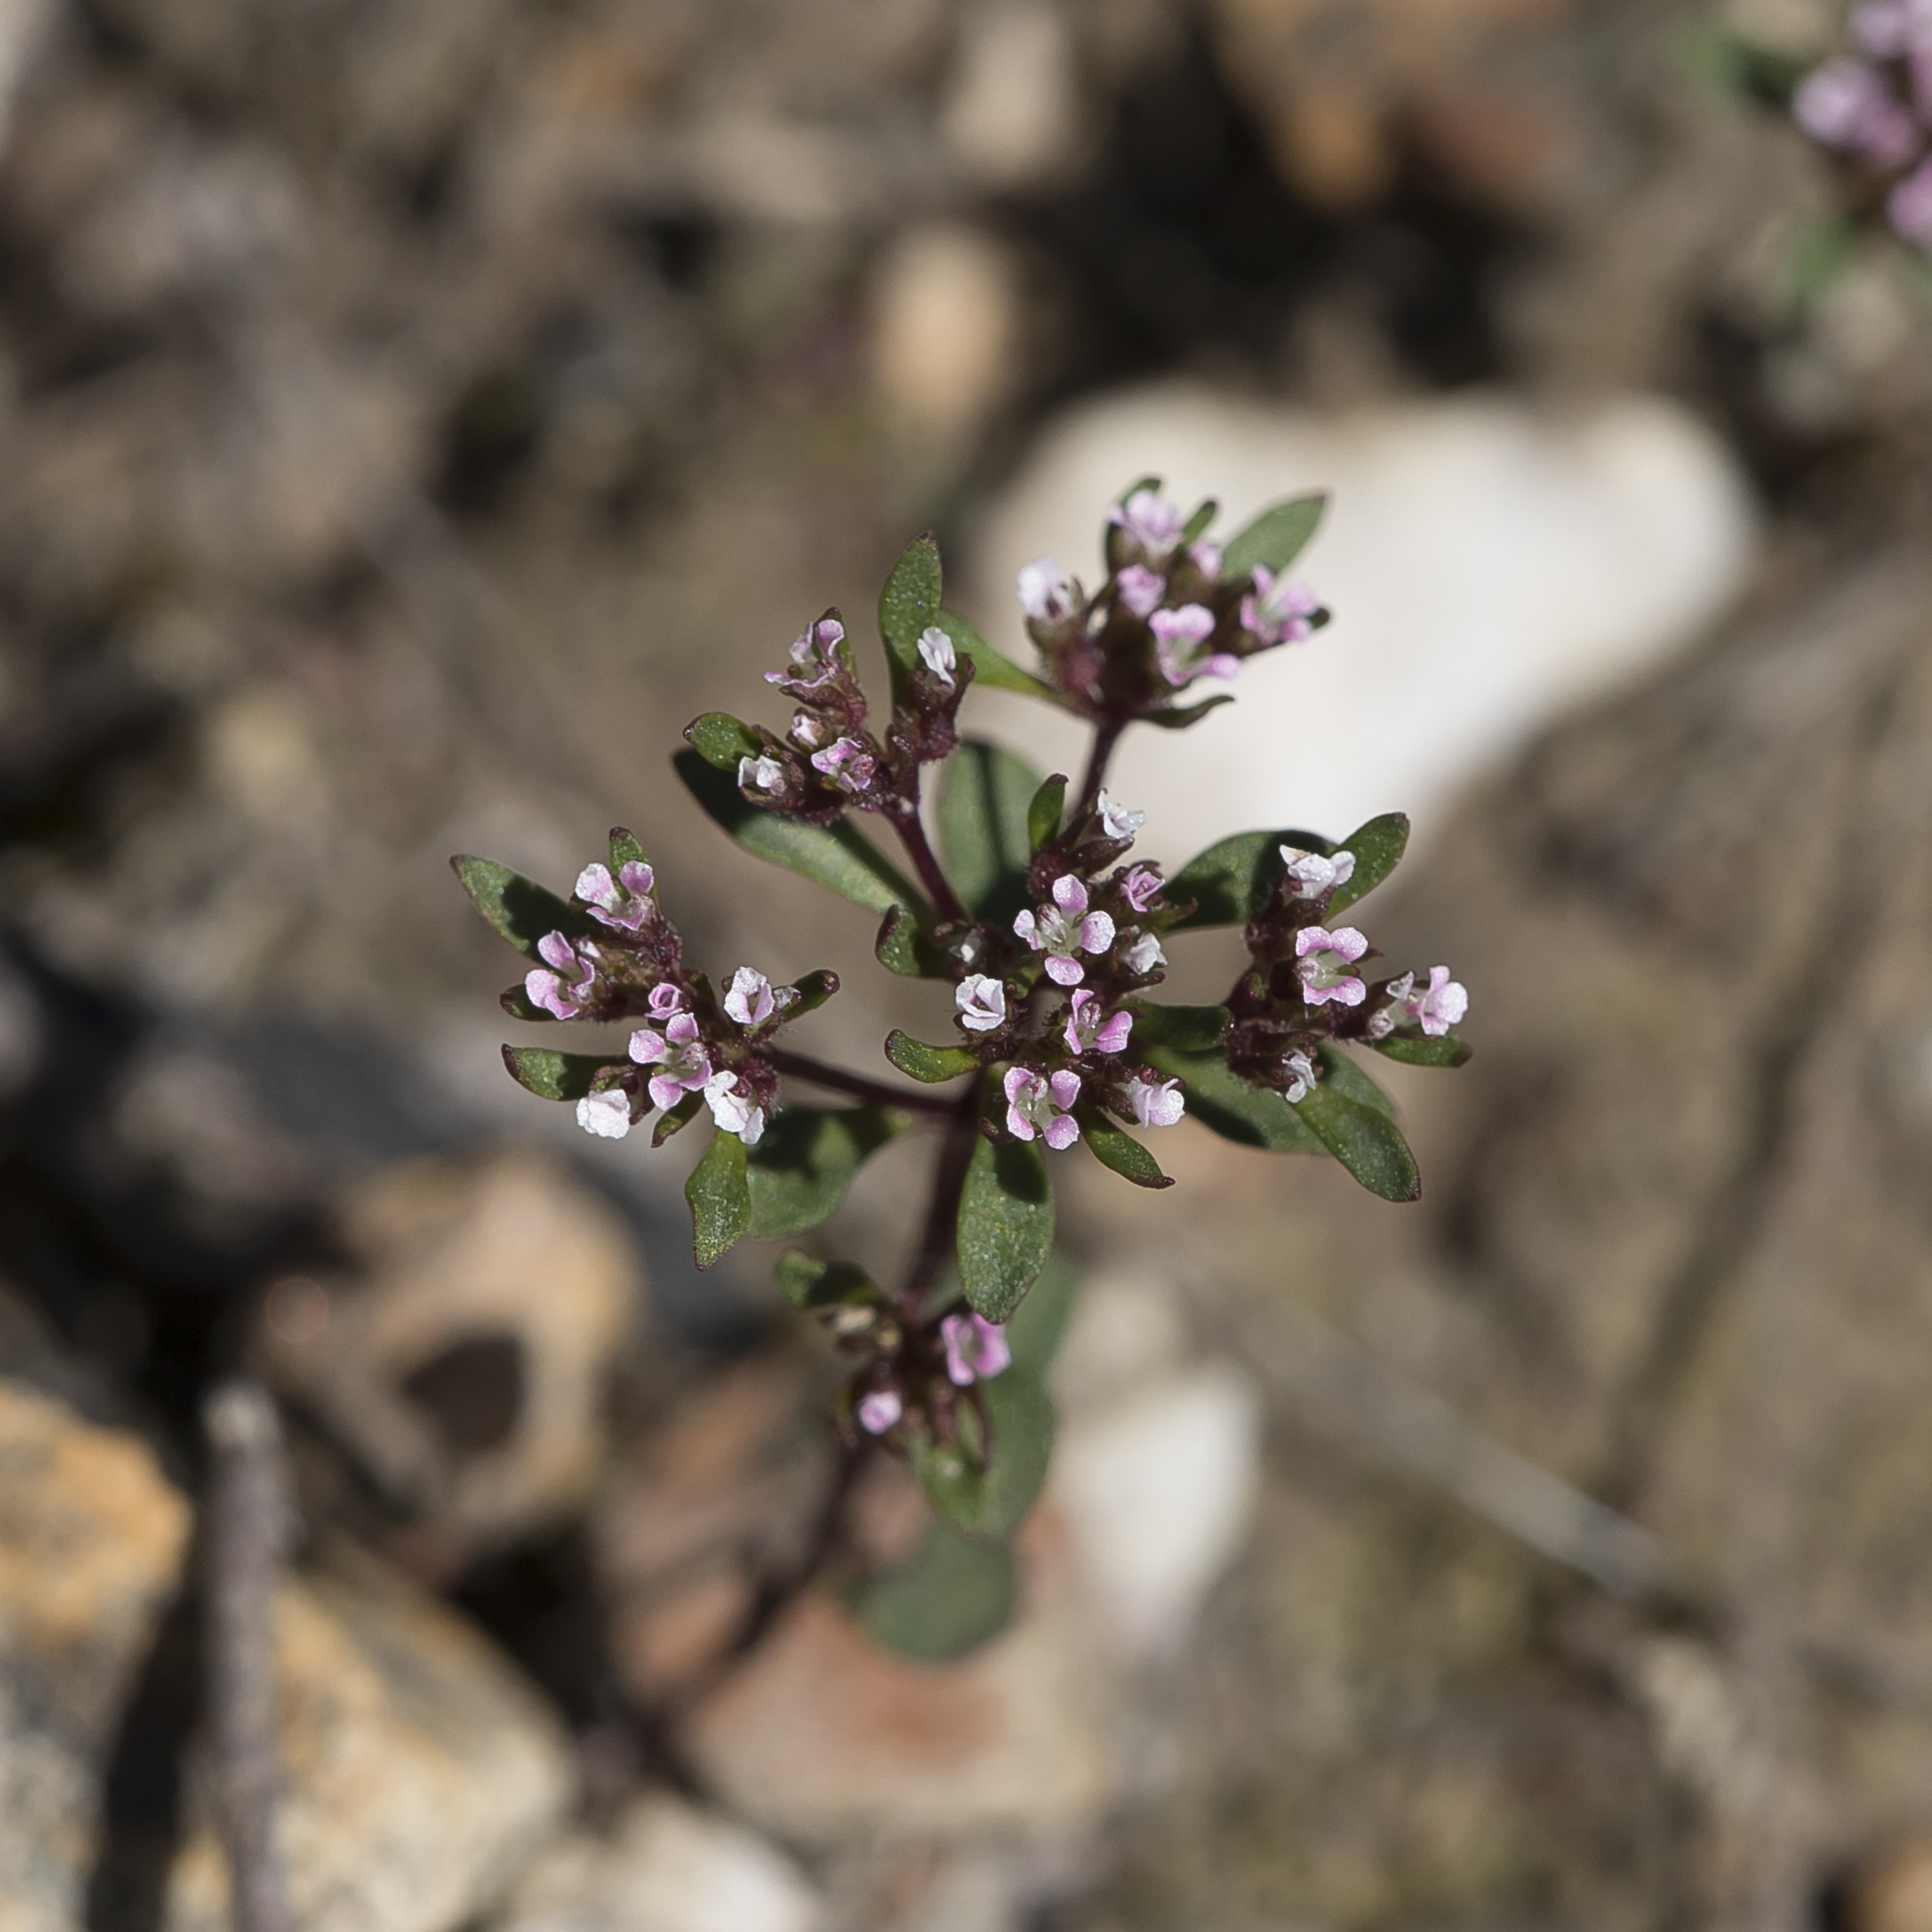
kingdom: Plantae
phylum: Tracheophyta
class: Magnoliopsida
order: Asterales
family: Stylidiaceae
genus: Levenhookia
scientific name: Levenhookia pusilla
